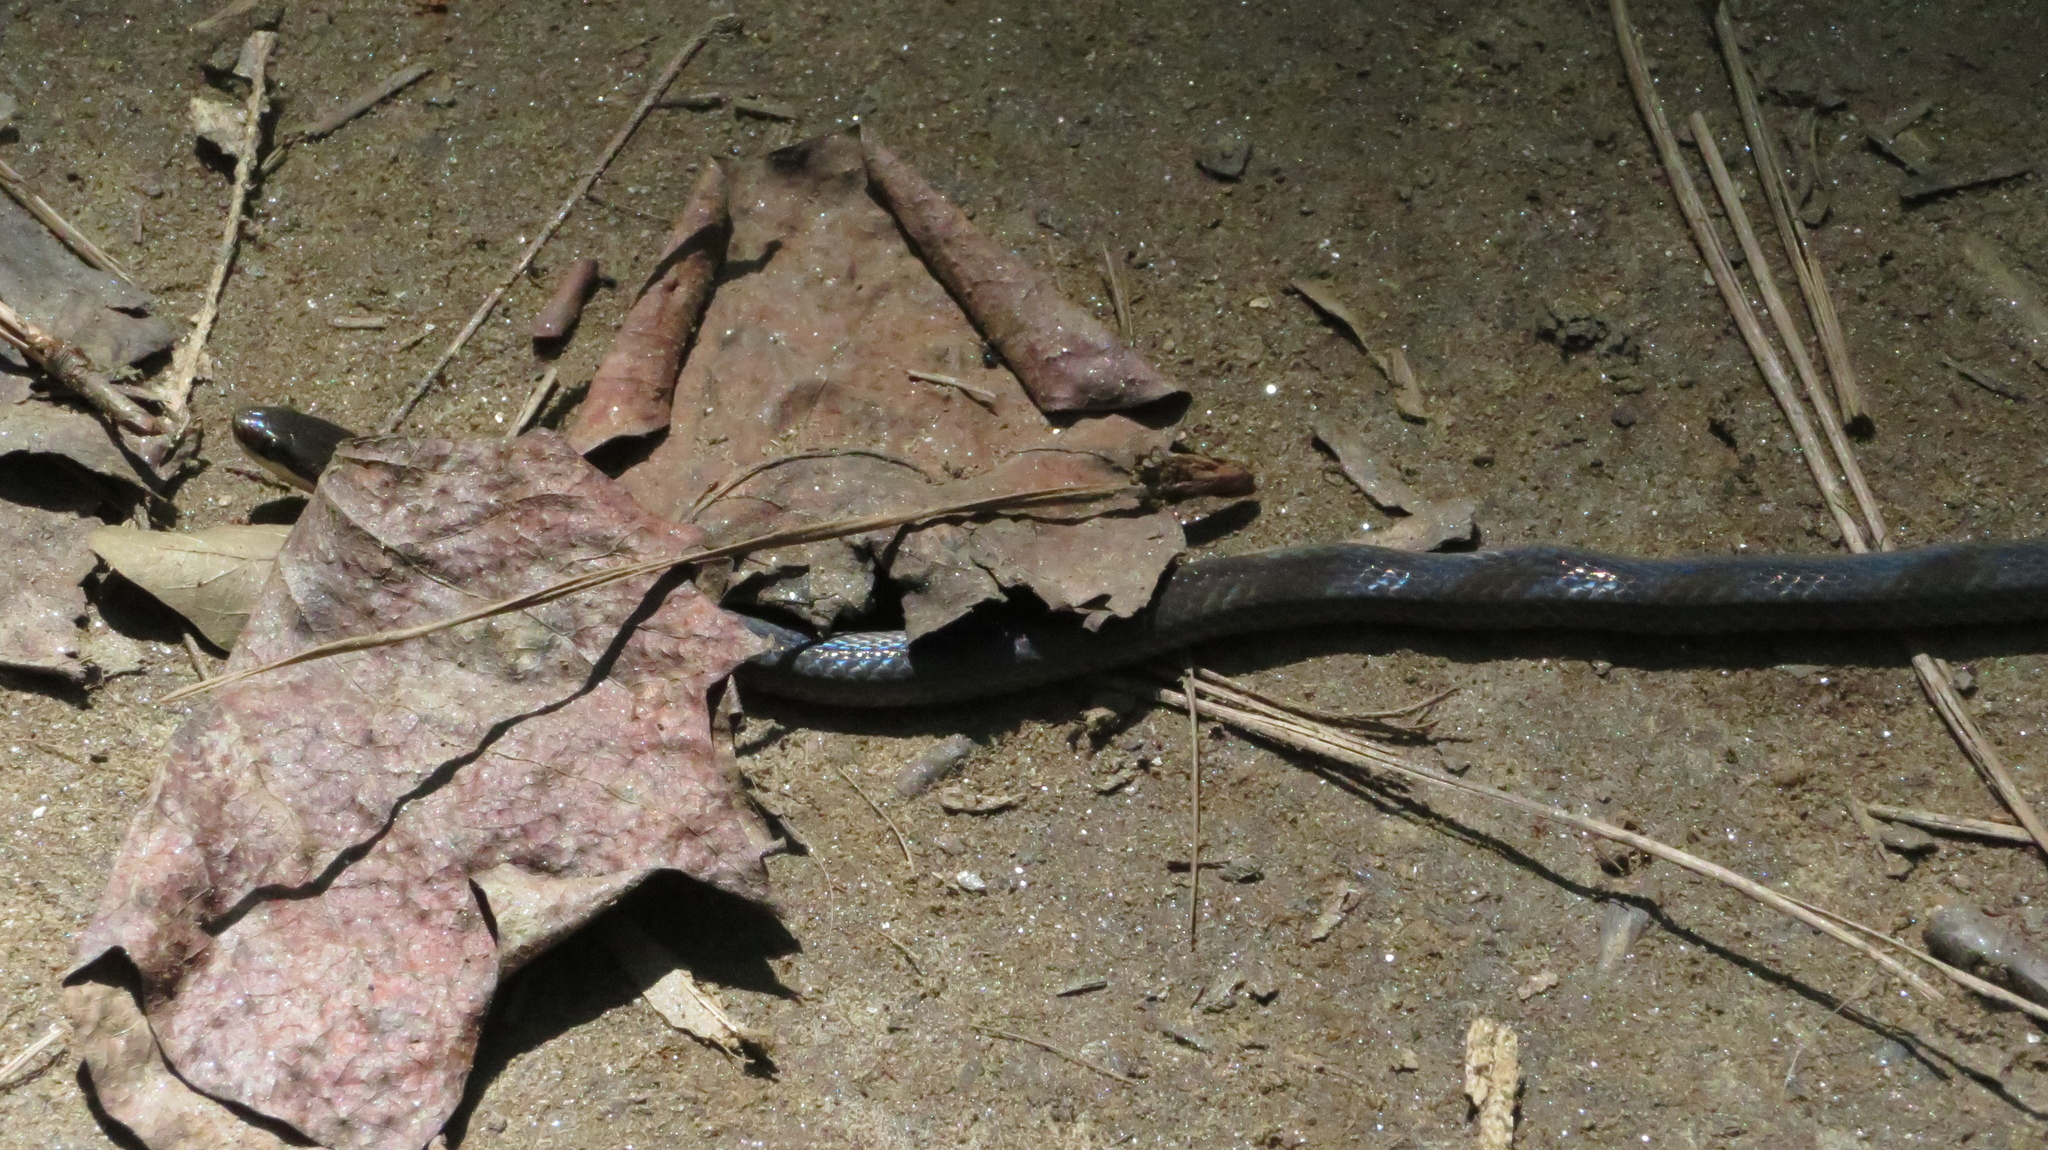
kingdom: Animalia
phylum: Chordata
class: Squamata
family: Colubridae
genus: Diadophis
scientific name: Diadophis punctatus
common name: Ringneck snake
